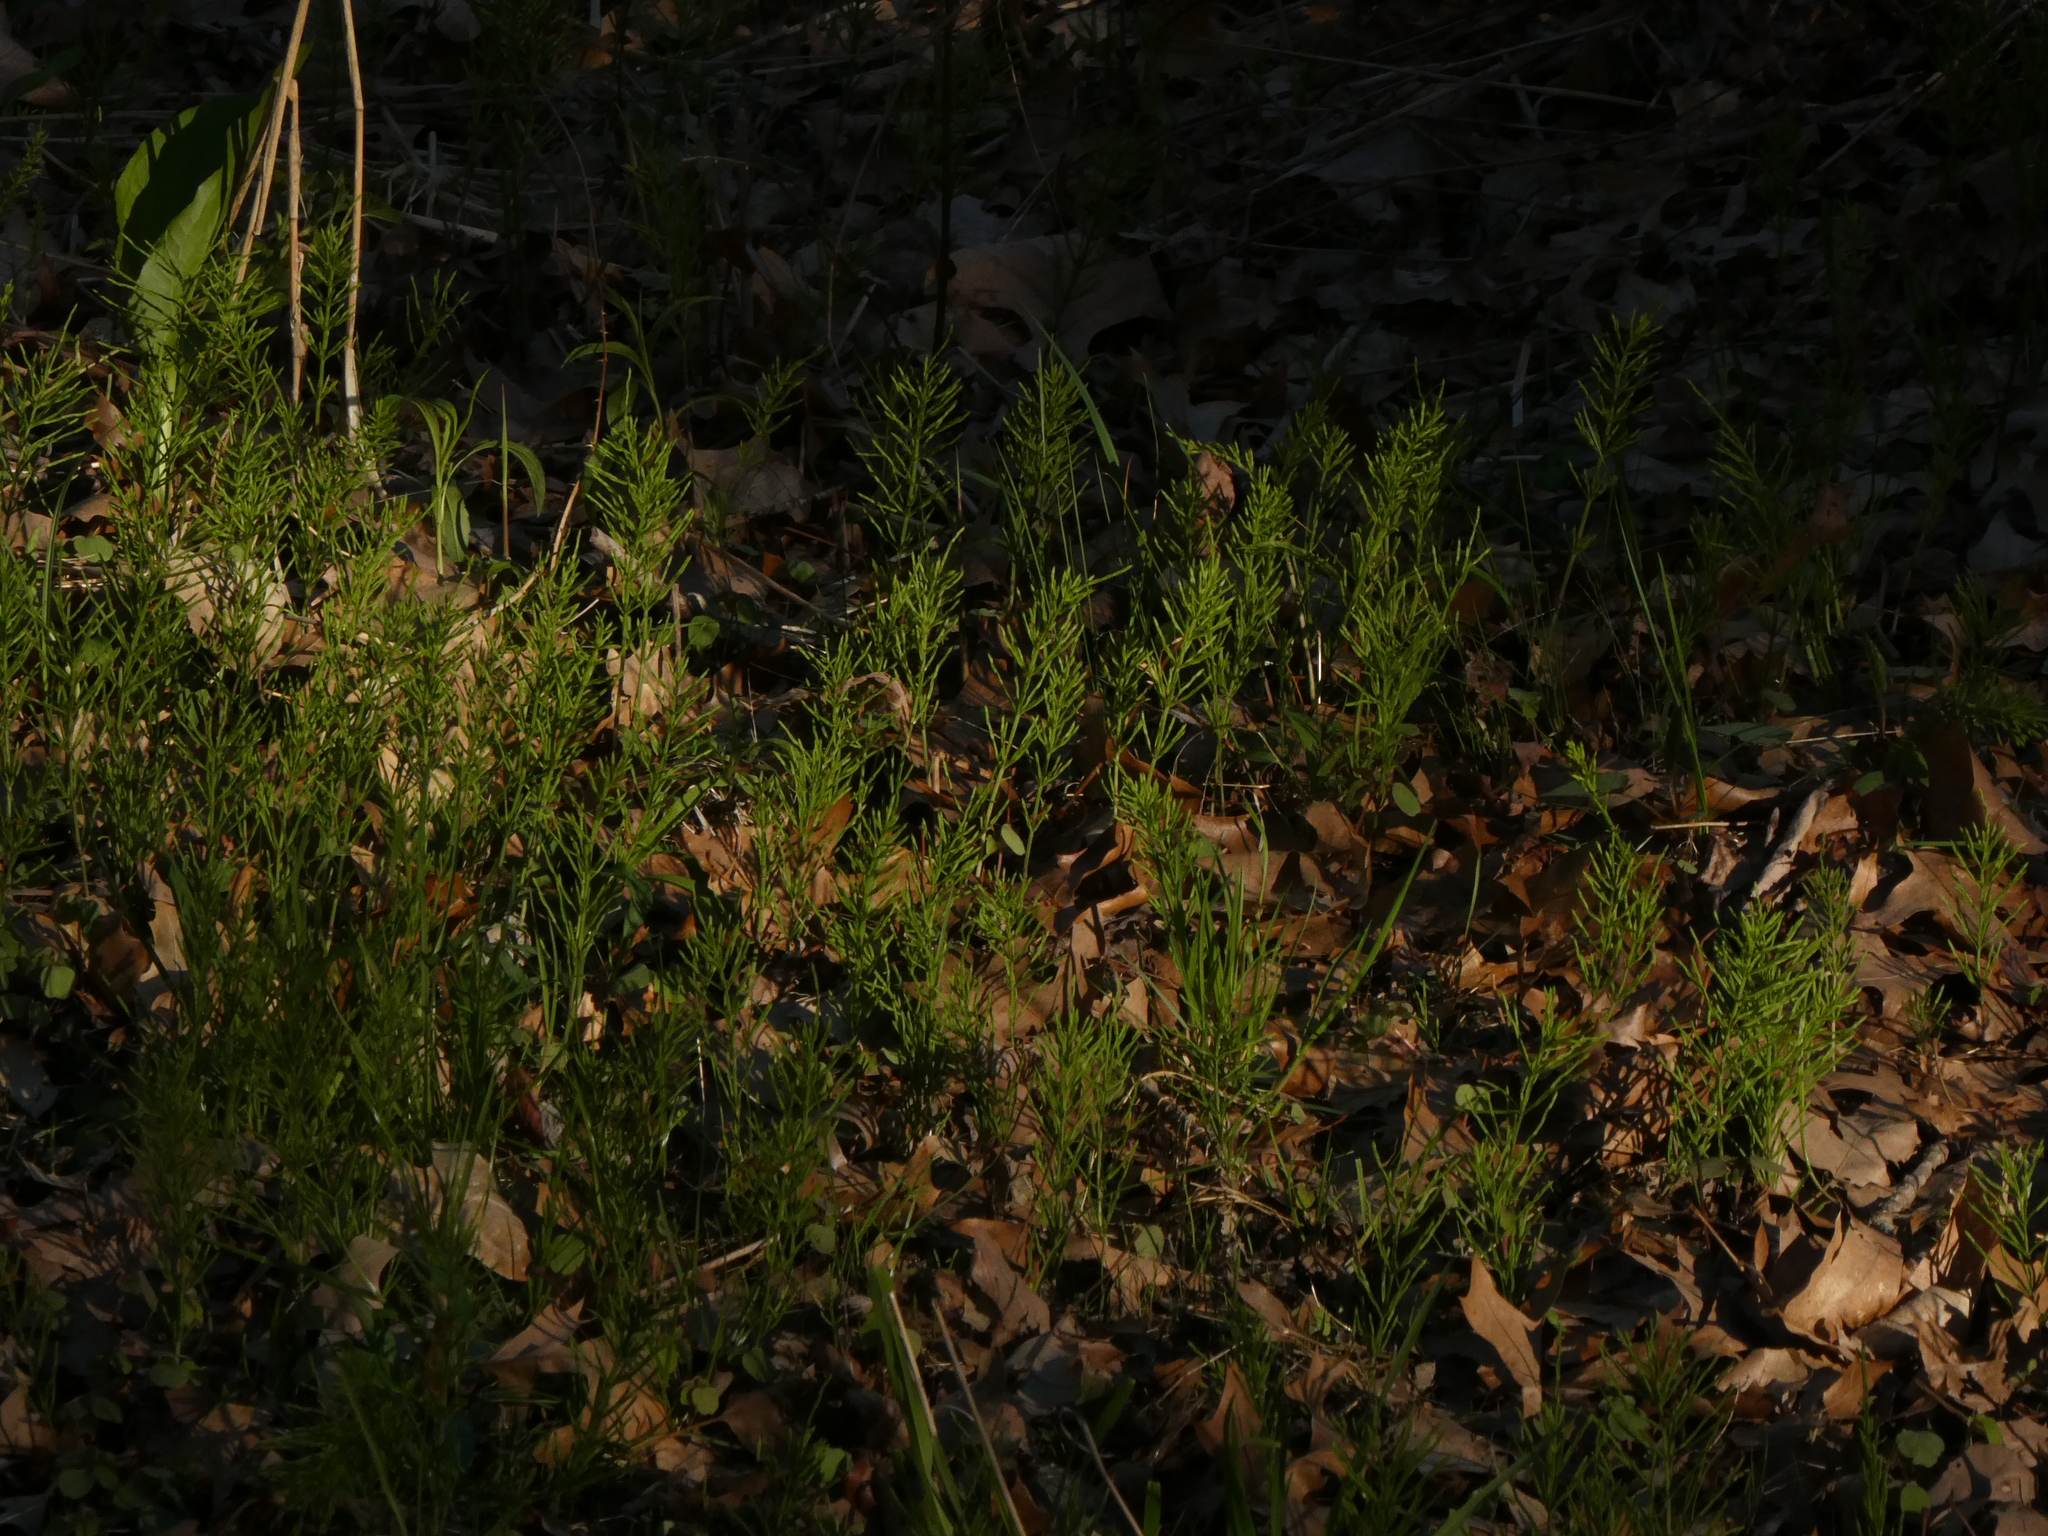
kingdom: Plantae
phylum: Tracheophyta
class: Polypodiopsida
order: Equisetales
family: Equisetaceae
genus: Equisetum
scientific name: Equisetum arvense
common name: Field horsetail
